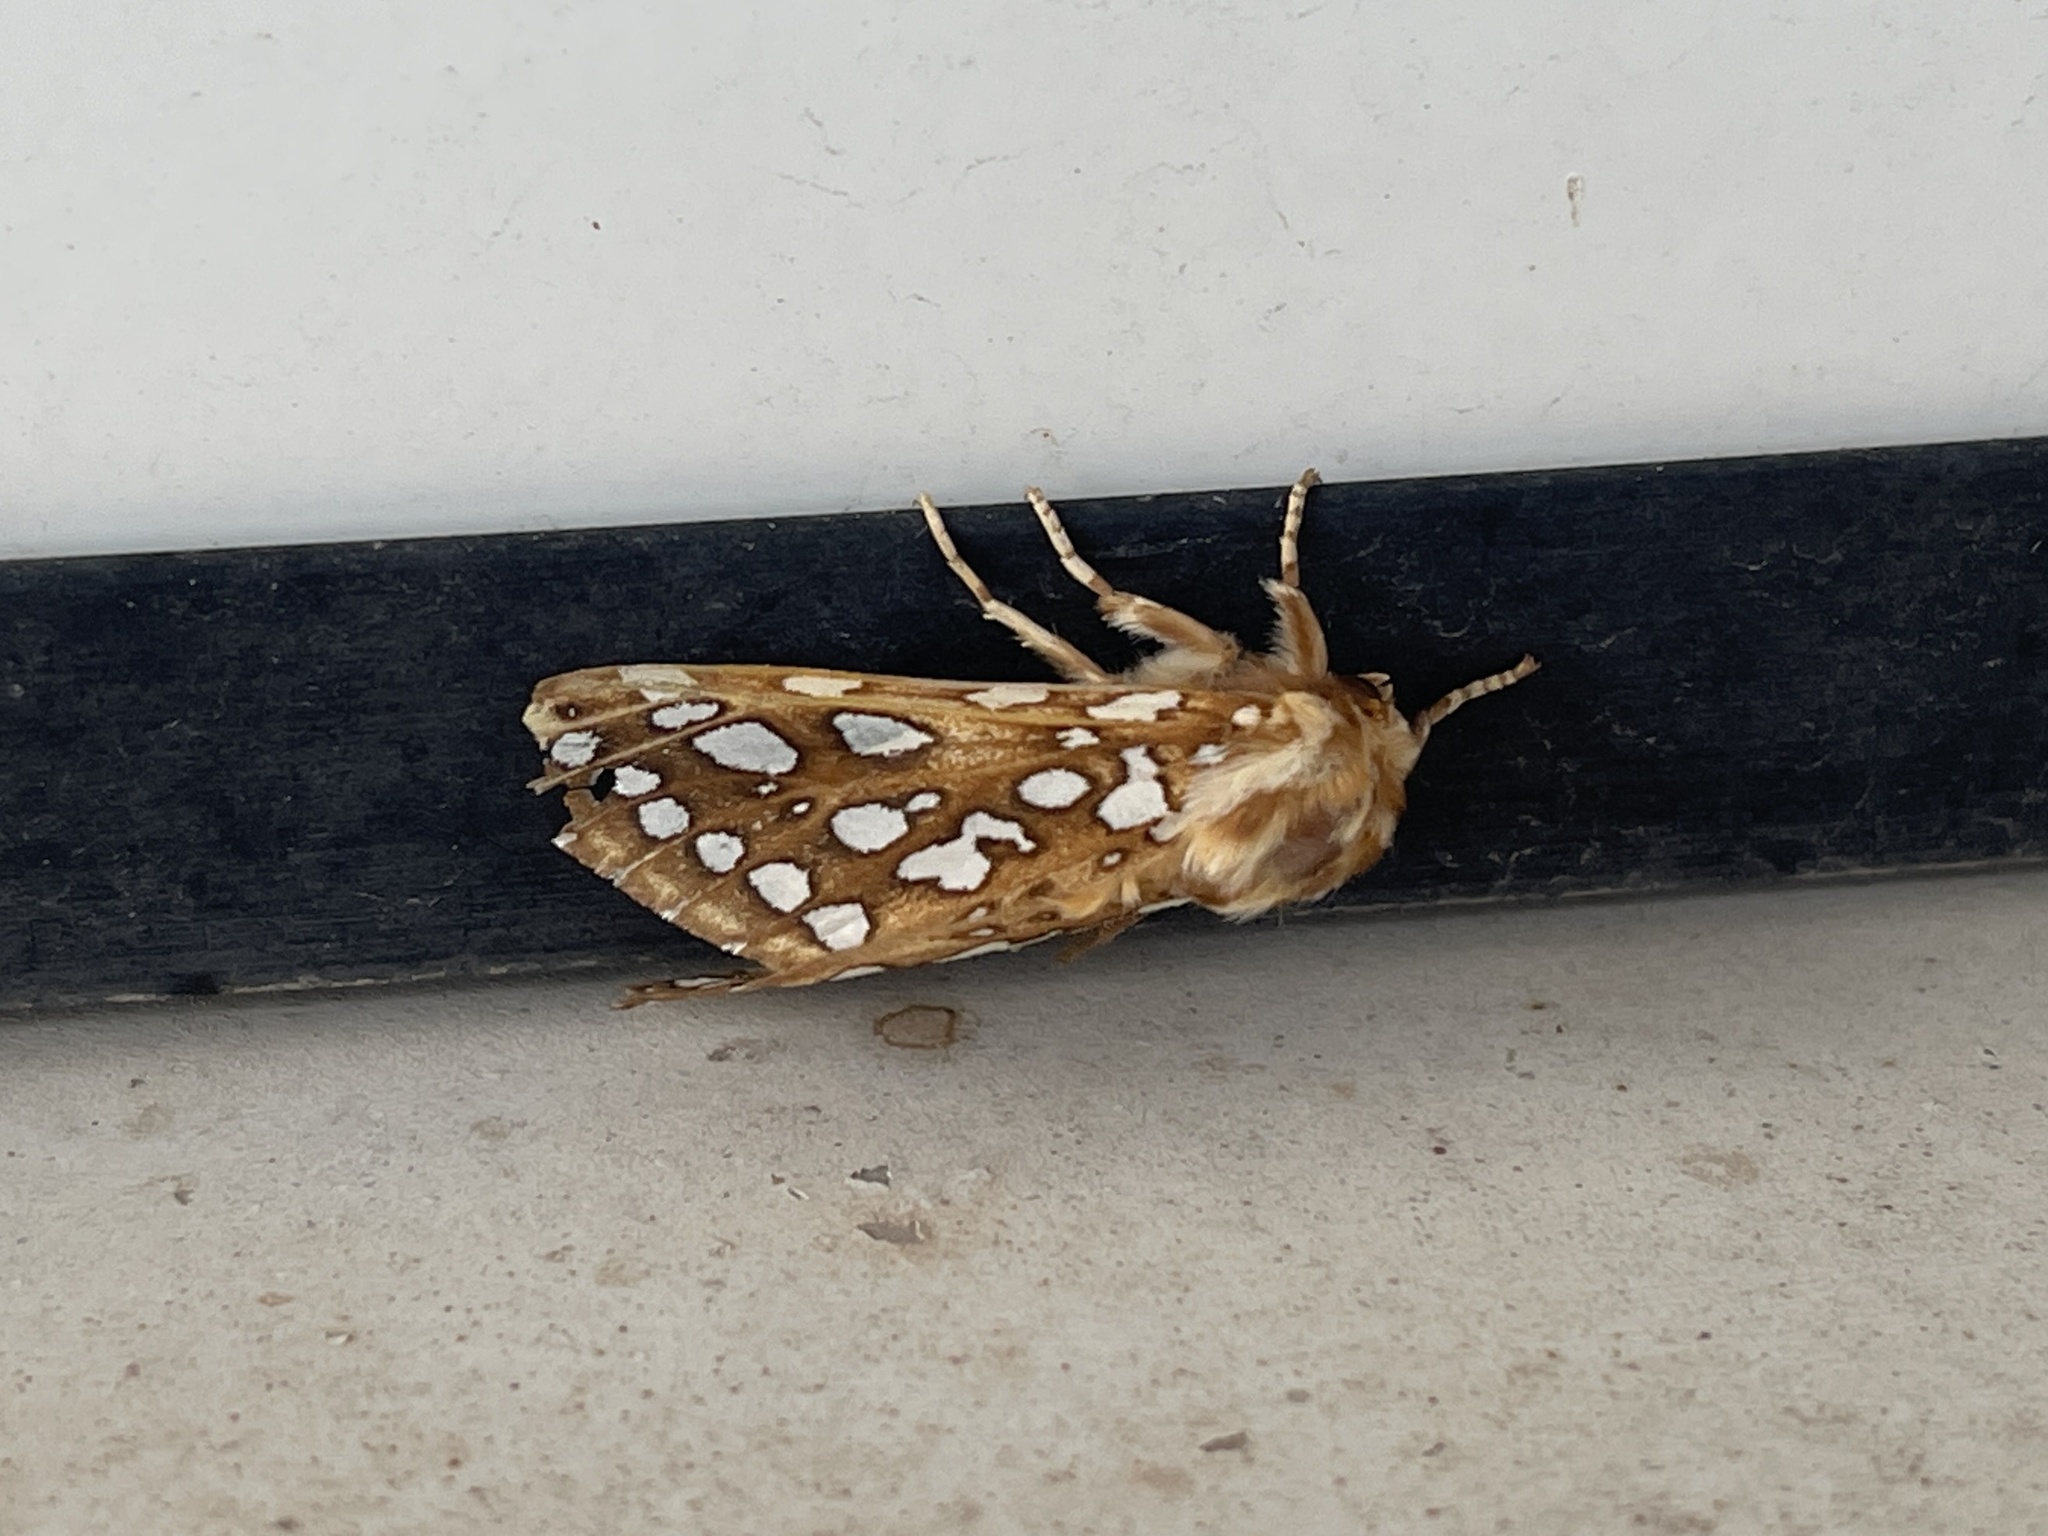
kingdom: Animalia
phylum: Arthropoda
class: Insecta
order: Lepidoptera
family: Erebidae
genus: Lophocampa
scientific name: Lophocampa argentata
